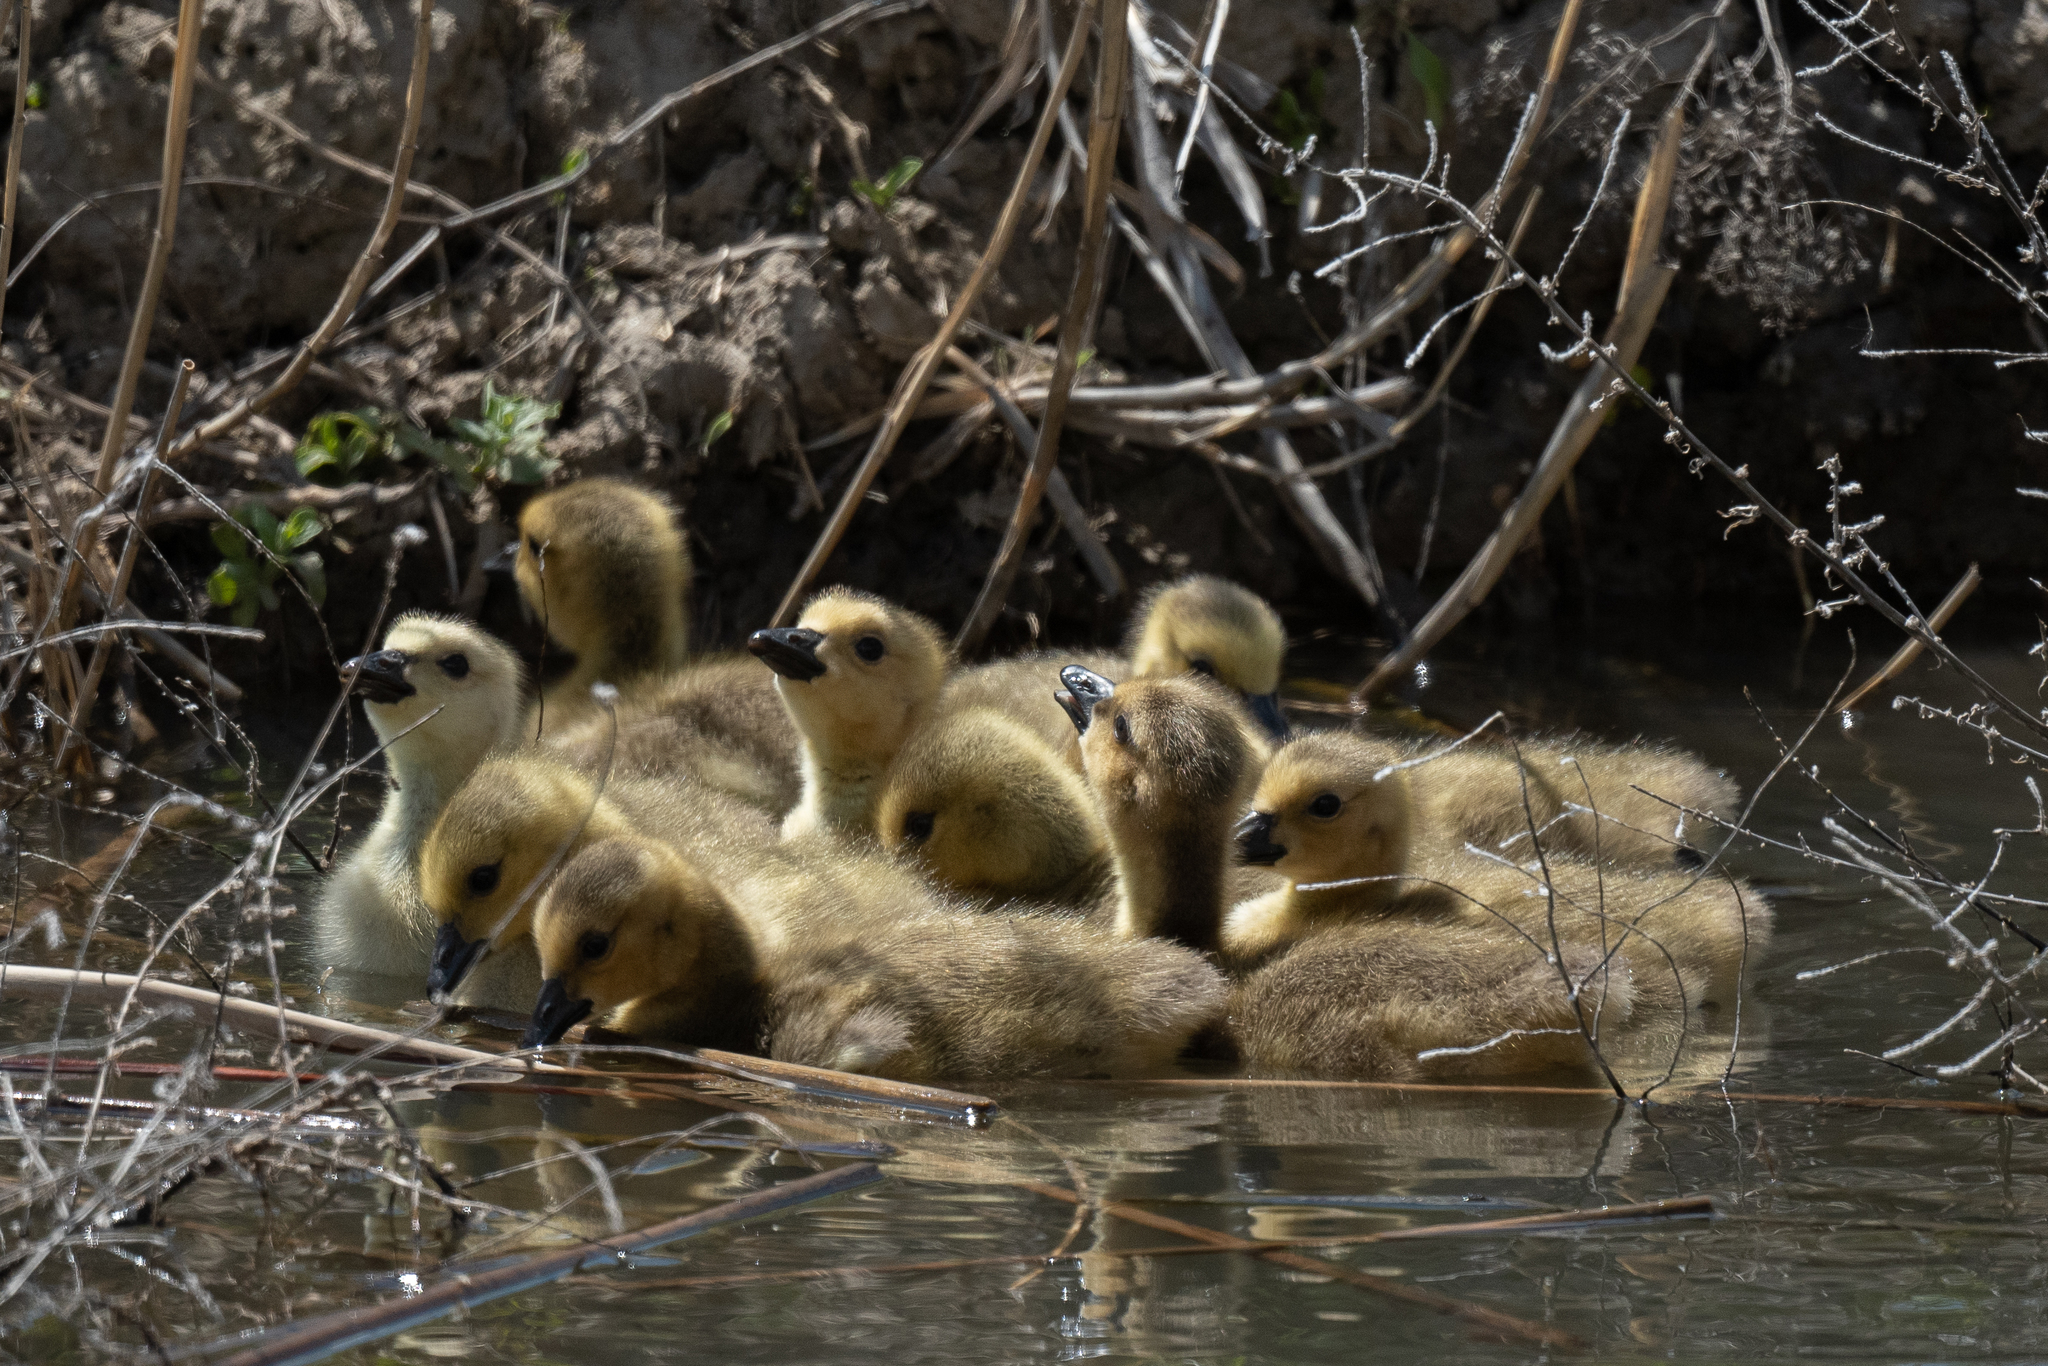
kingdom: Animalia
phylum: Chordata
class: Aves
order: Anseriformes
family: Anatidae
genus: Branta
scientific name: Branta canadensis
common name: Canada goose
